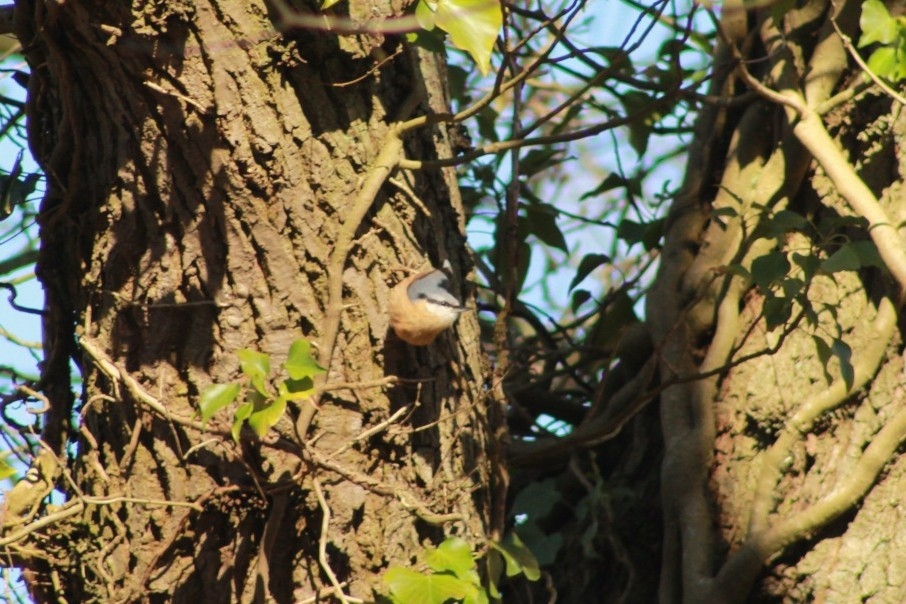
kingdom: Animalia
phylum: Chordata
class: Aves
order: Passeriformes
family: Sittidae
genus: Sitta
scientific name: Sitta europaea
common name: Eurasian nuthatch
